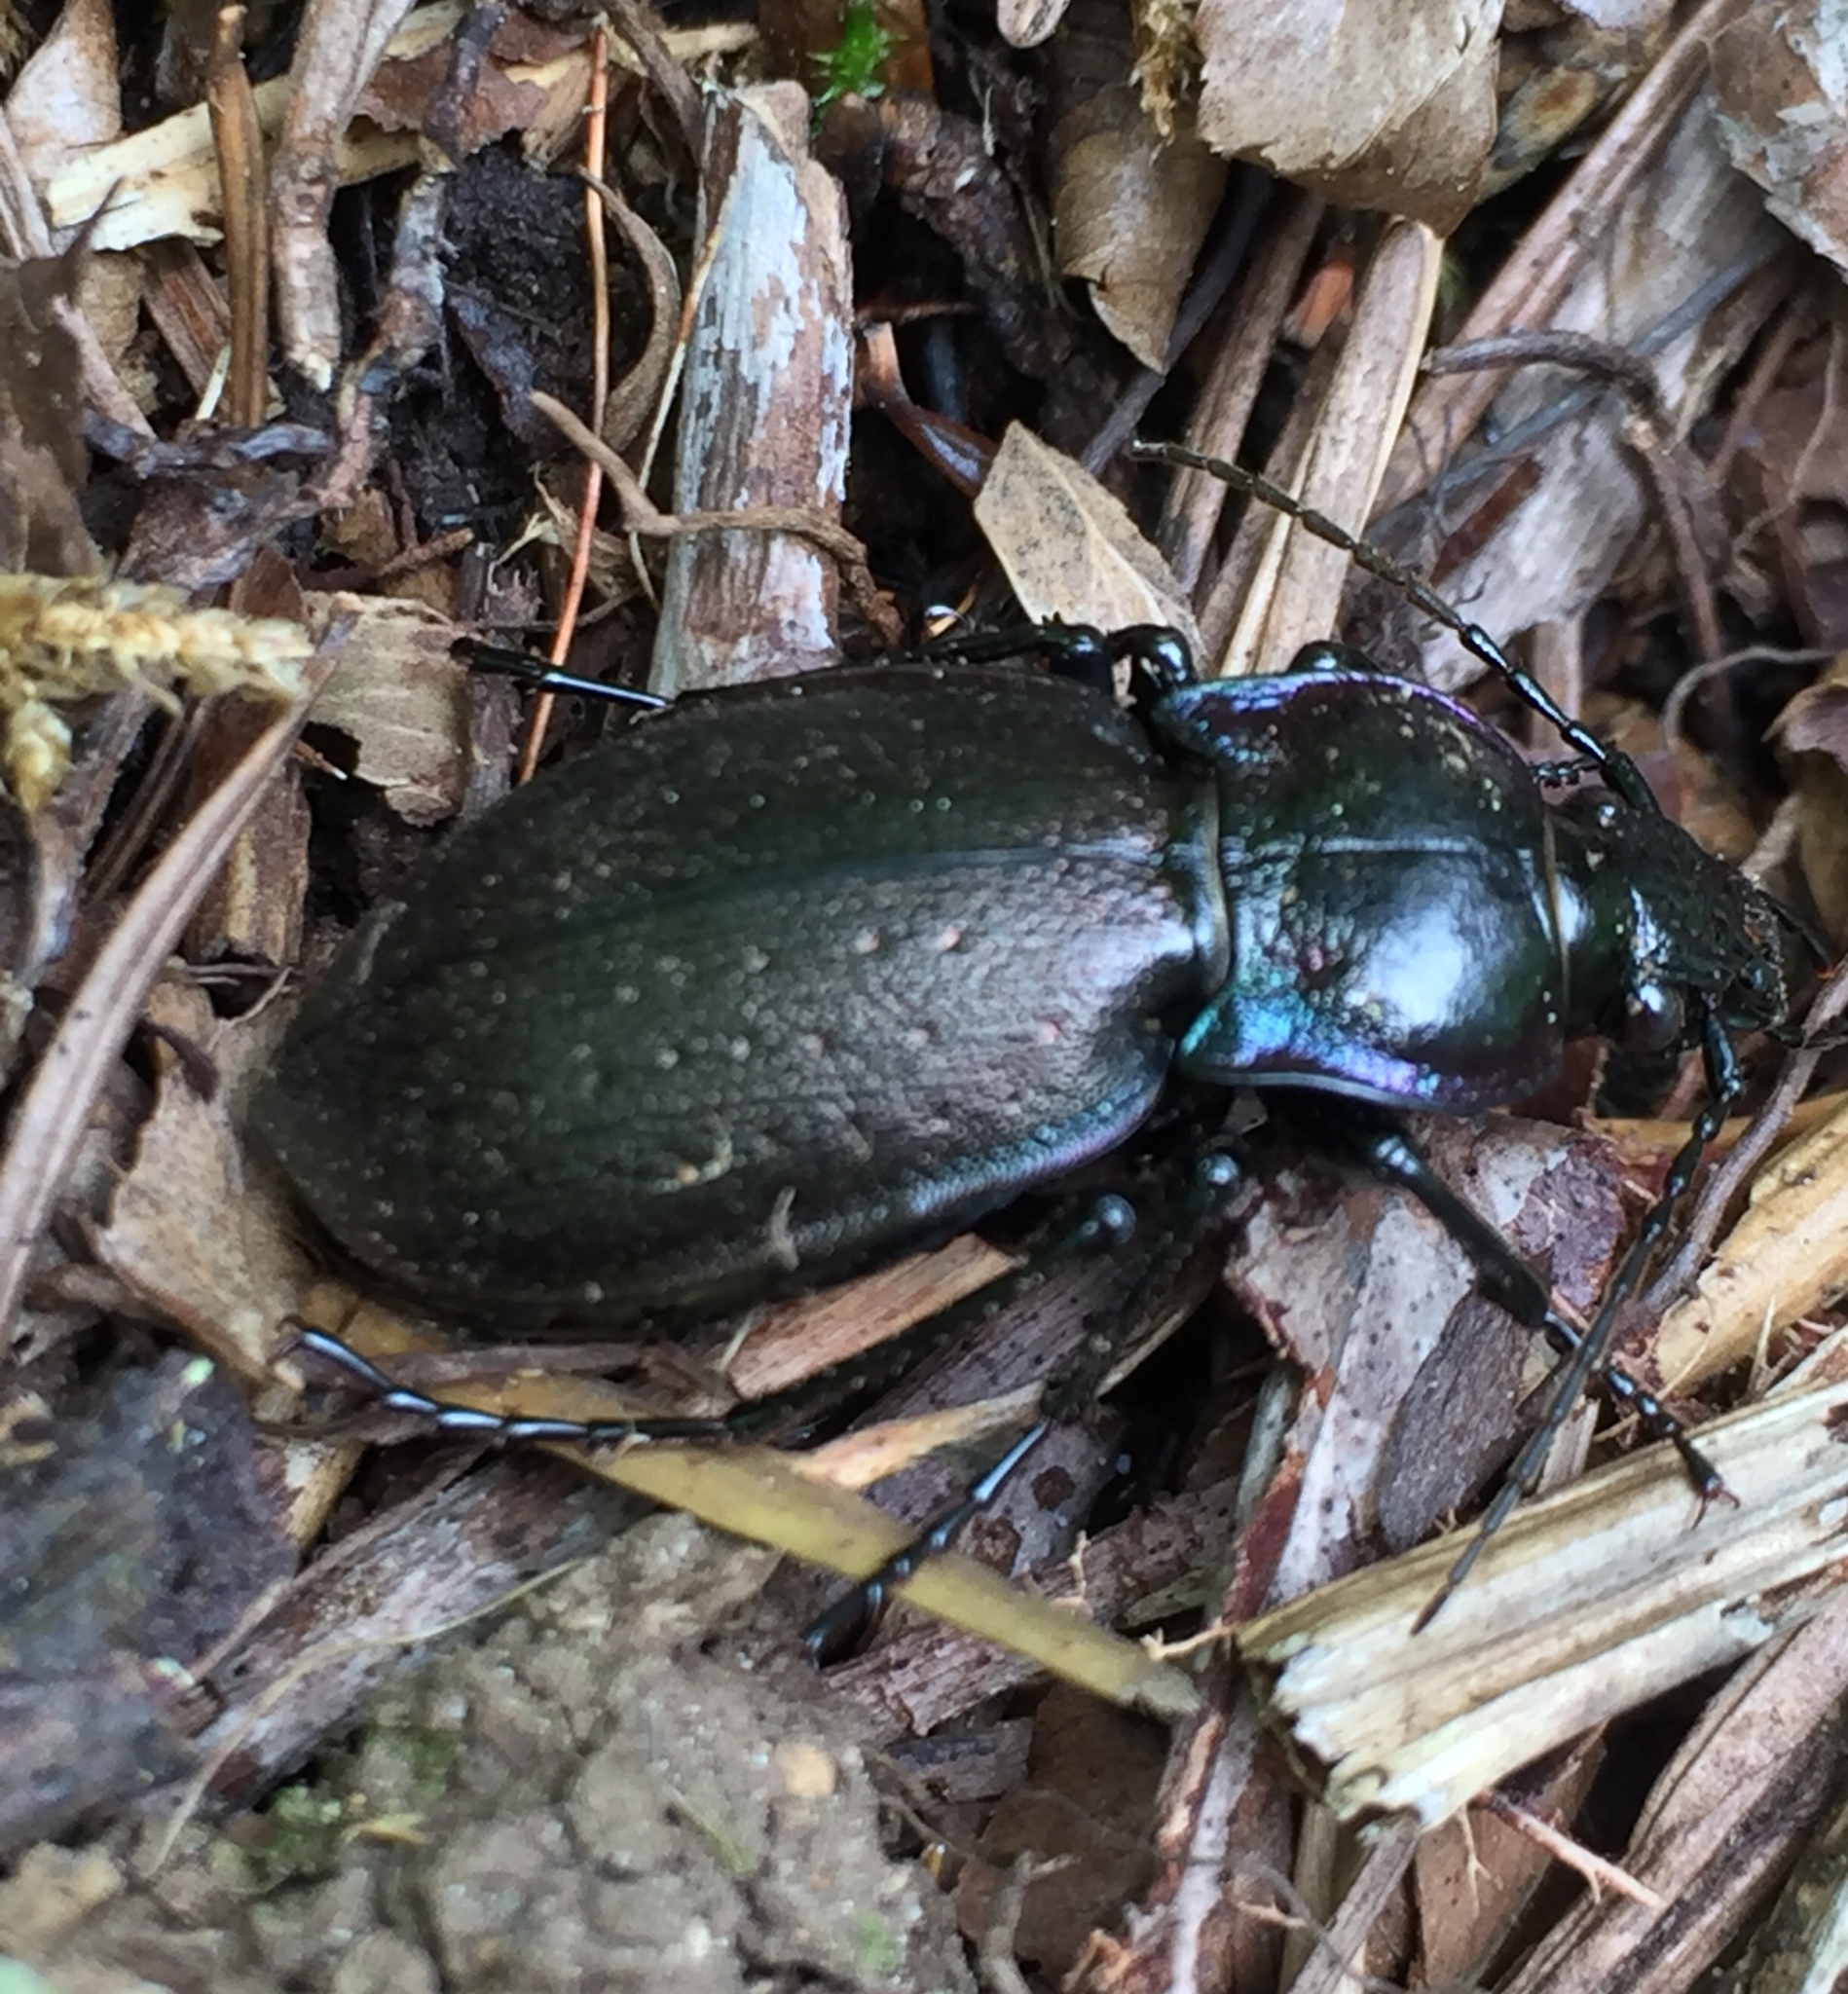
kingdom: Animalia
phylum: Arthropoda
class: Insecta
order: Coleoptera
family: Carabidae
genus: Carabus
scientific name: Carabus nemoralis
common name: European ground beetle
